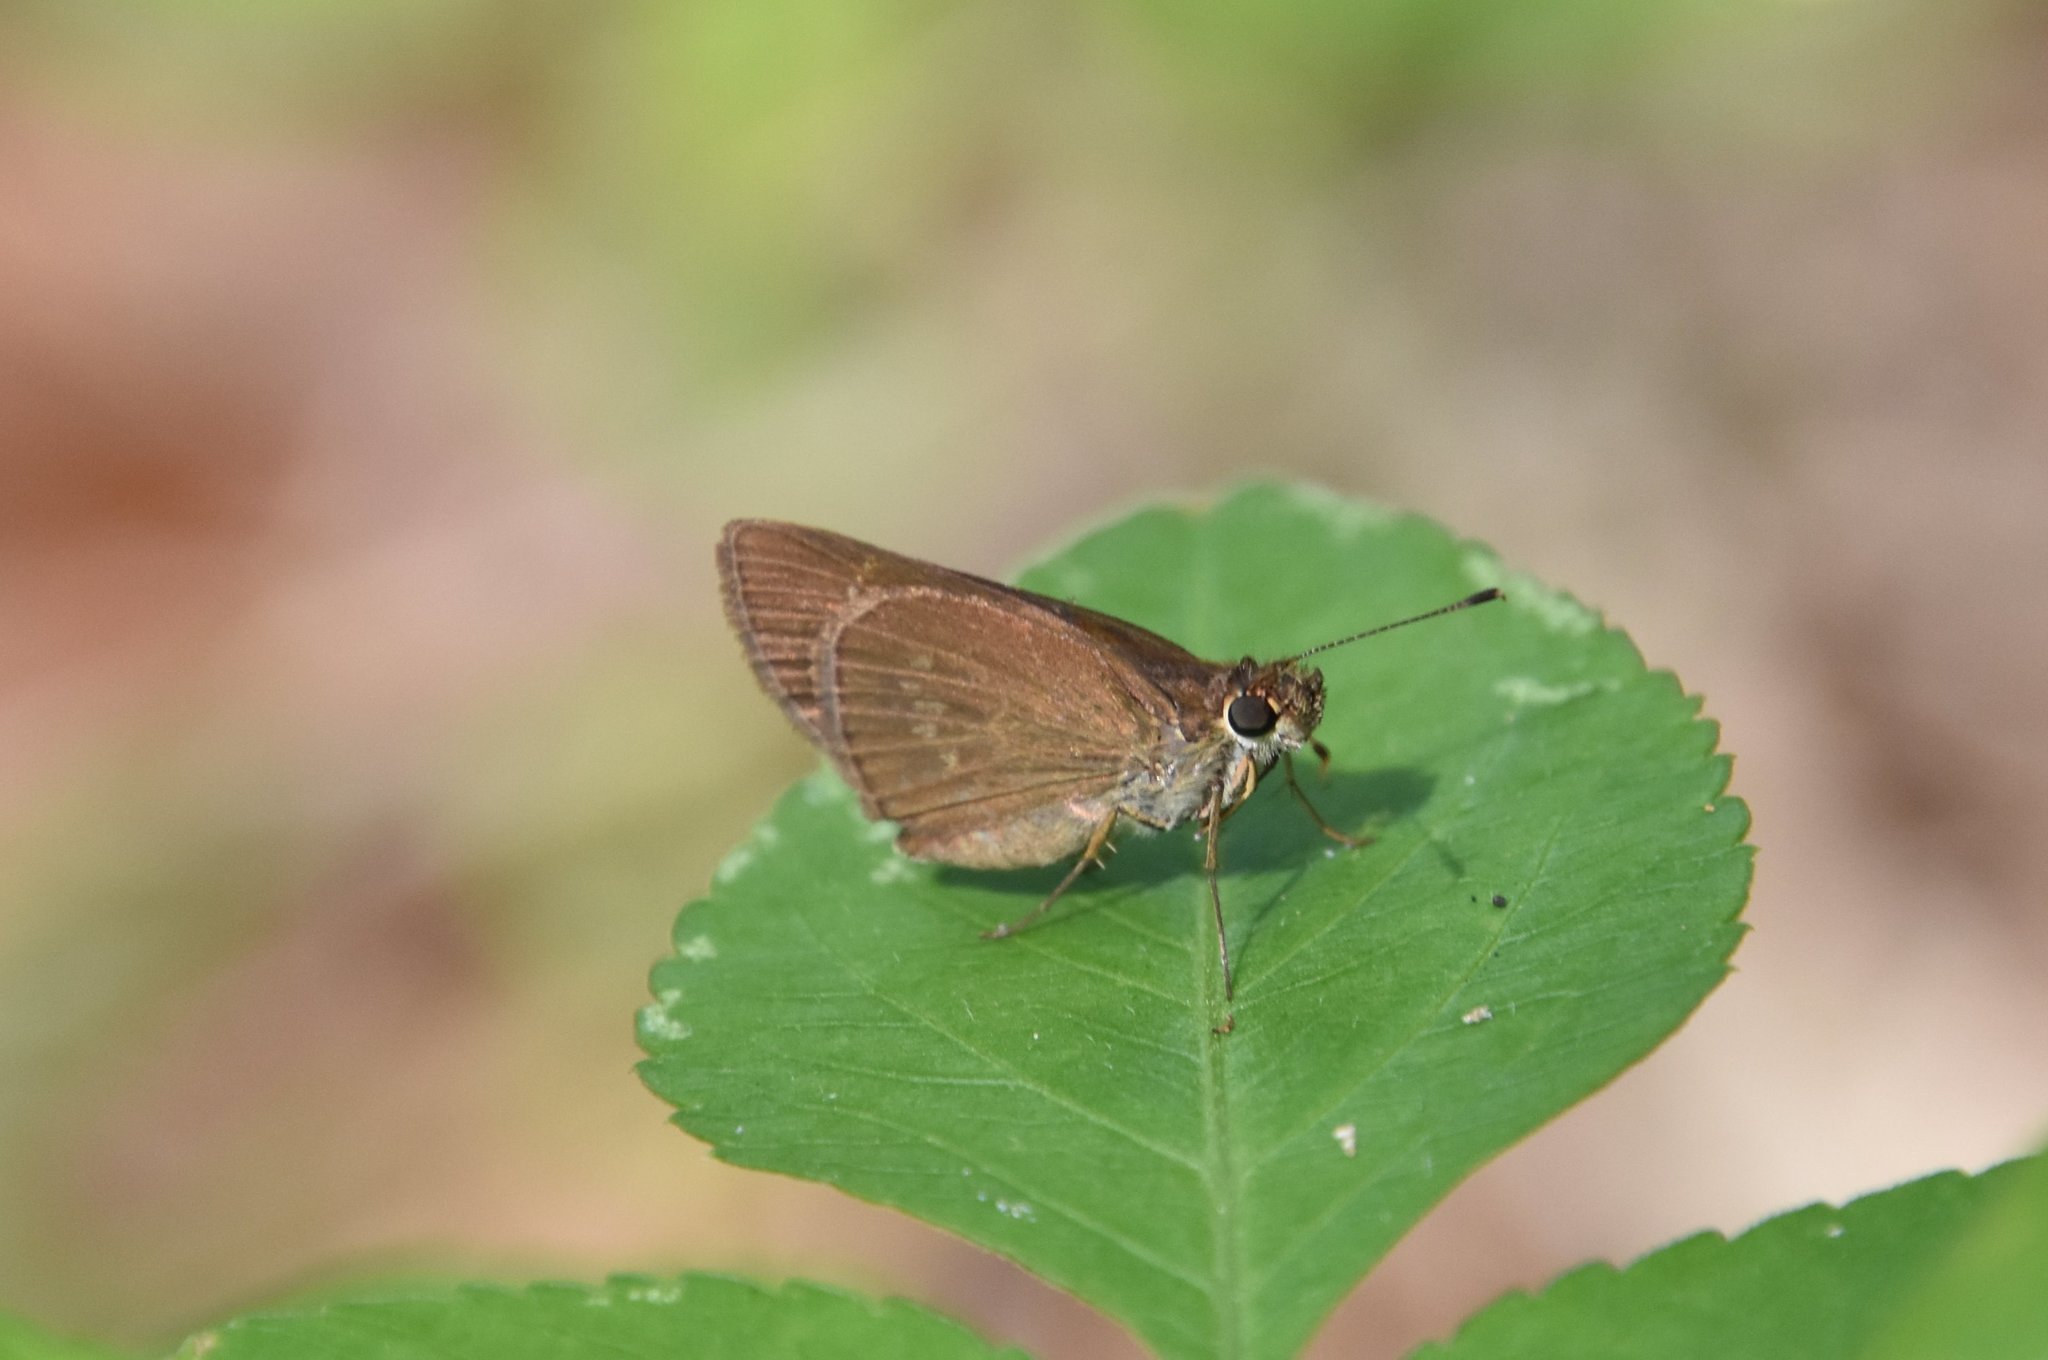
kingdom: Animalia
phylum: Arthropoda
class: Insecta
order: Lepidoptera
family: Hesperiidae
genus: Cymaenes
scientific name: Cymaenes tripunctus
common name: Dingy dotted skipper
